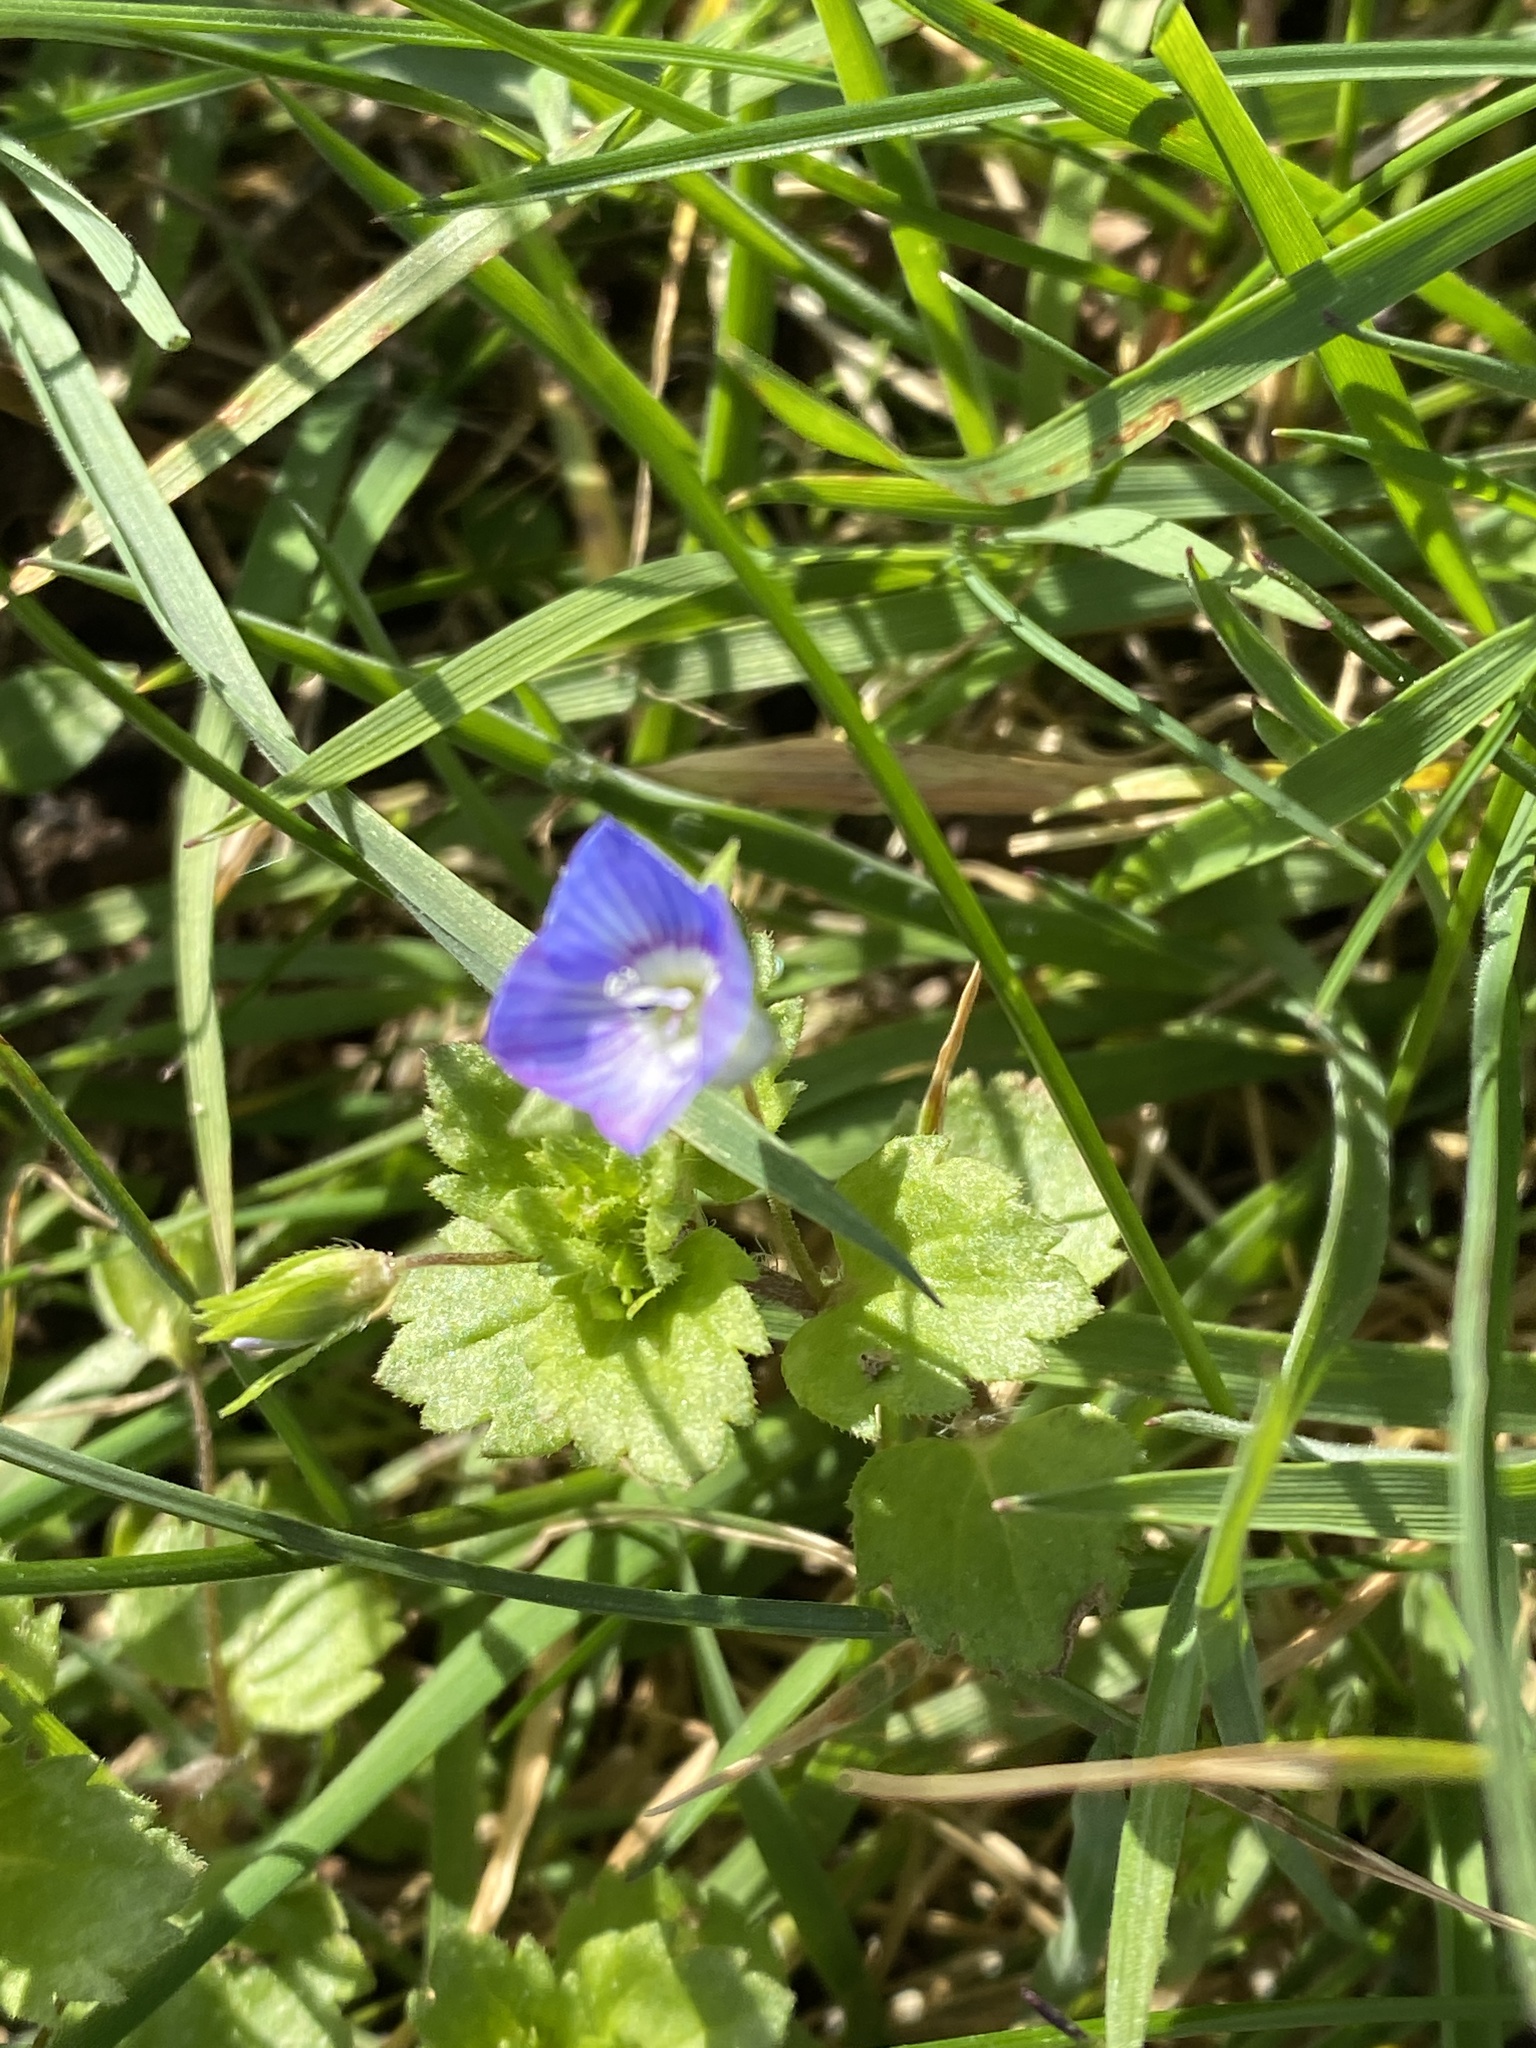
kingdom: Plantae
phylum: Tracheophyta
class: Magnoliopsida
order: Lamiales
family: Plantaginaceae
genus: Veronica
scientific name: Veronica persica
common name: Common field-speedwell
